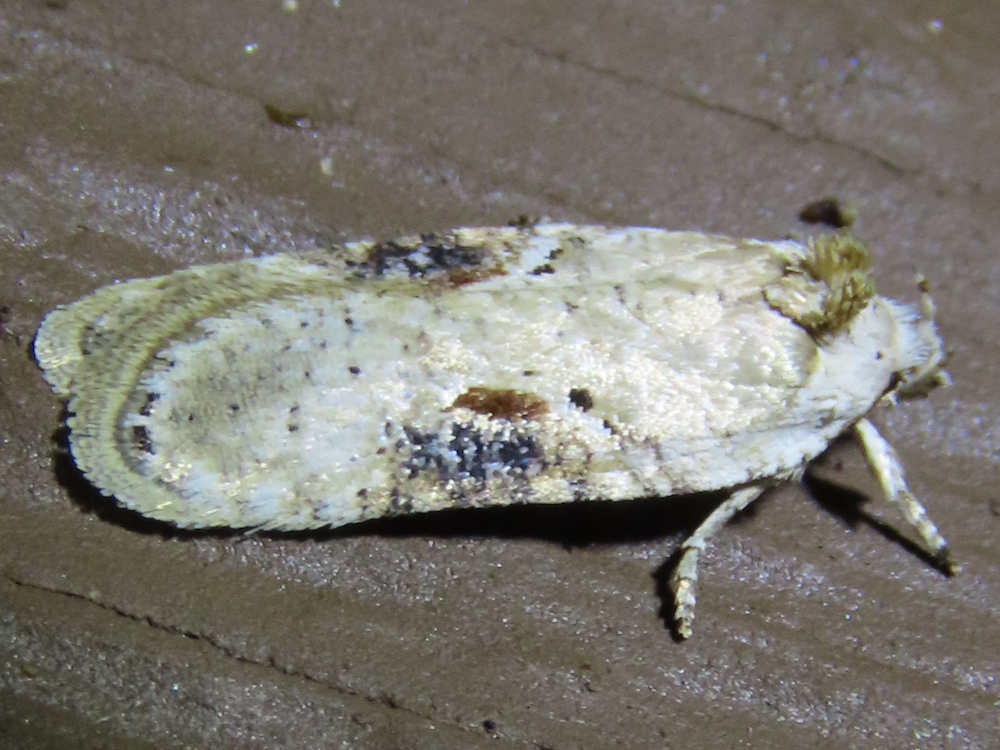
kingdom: Animalia
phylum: Arthropoda
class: Insecta
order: Lepidoptera
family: Depressariidae
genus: Agonopterix
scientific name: Agonopterix alstroemeriana
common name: Moth
